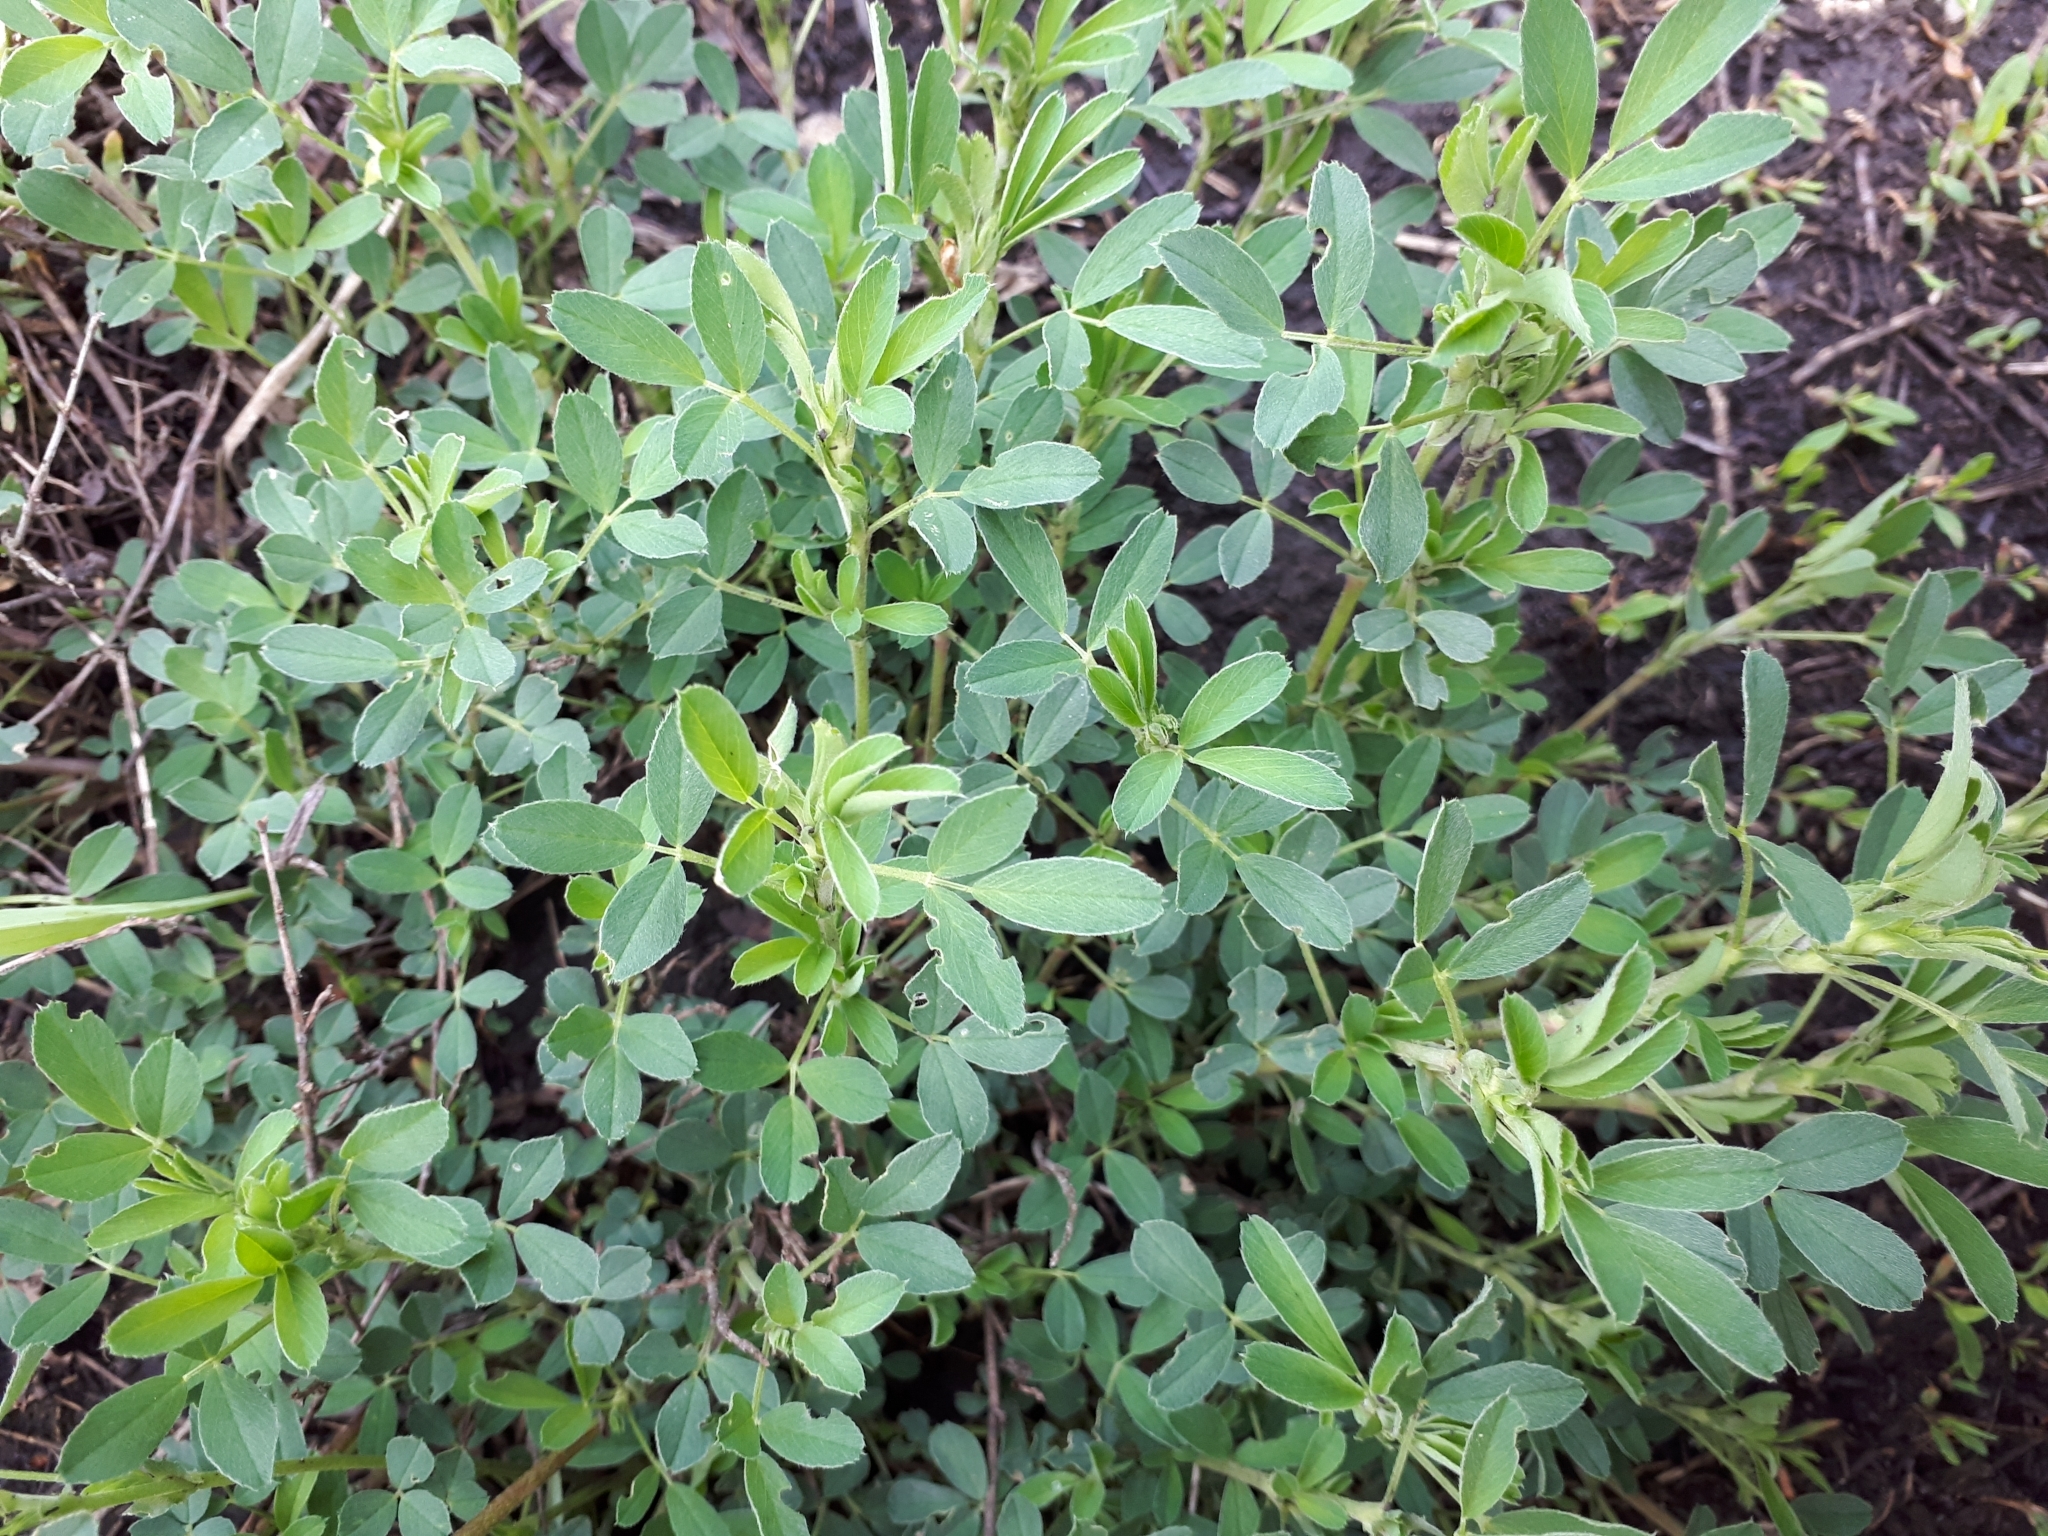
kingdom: Plantae
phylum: Tracheophyta
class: Magnoliopsida
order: Fabales
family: Fabaceae
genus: Medicago
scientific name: Medicago falcata
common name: Sickle medick
